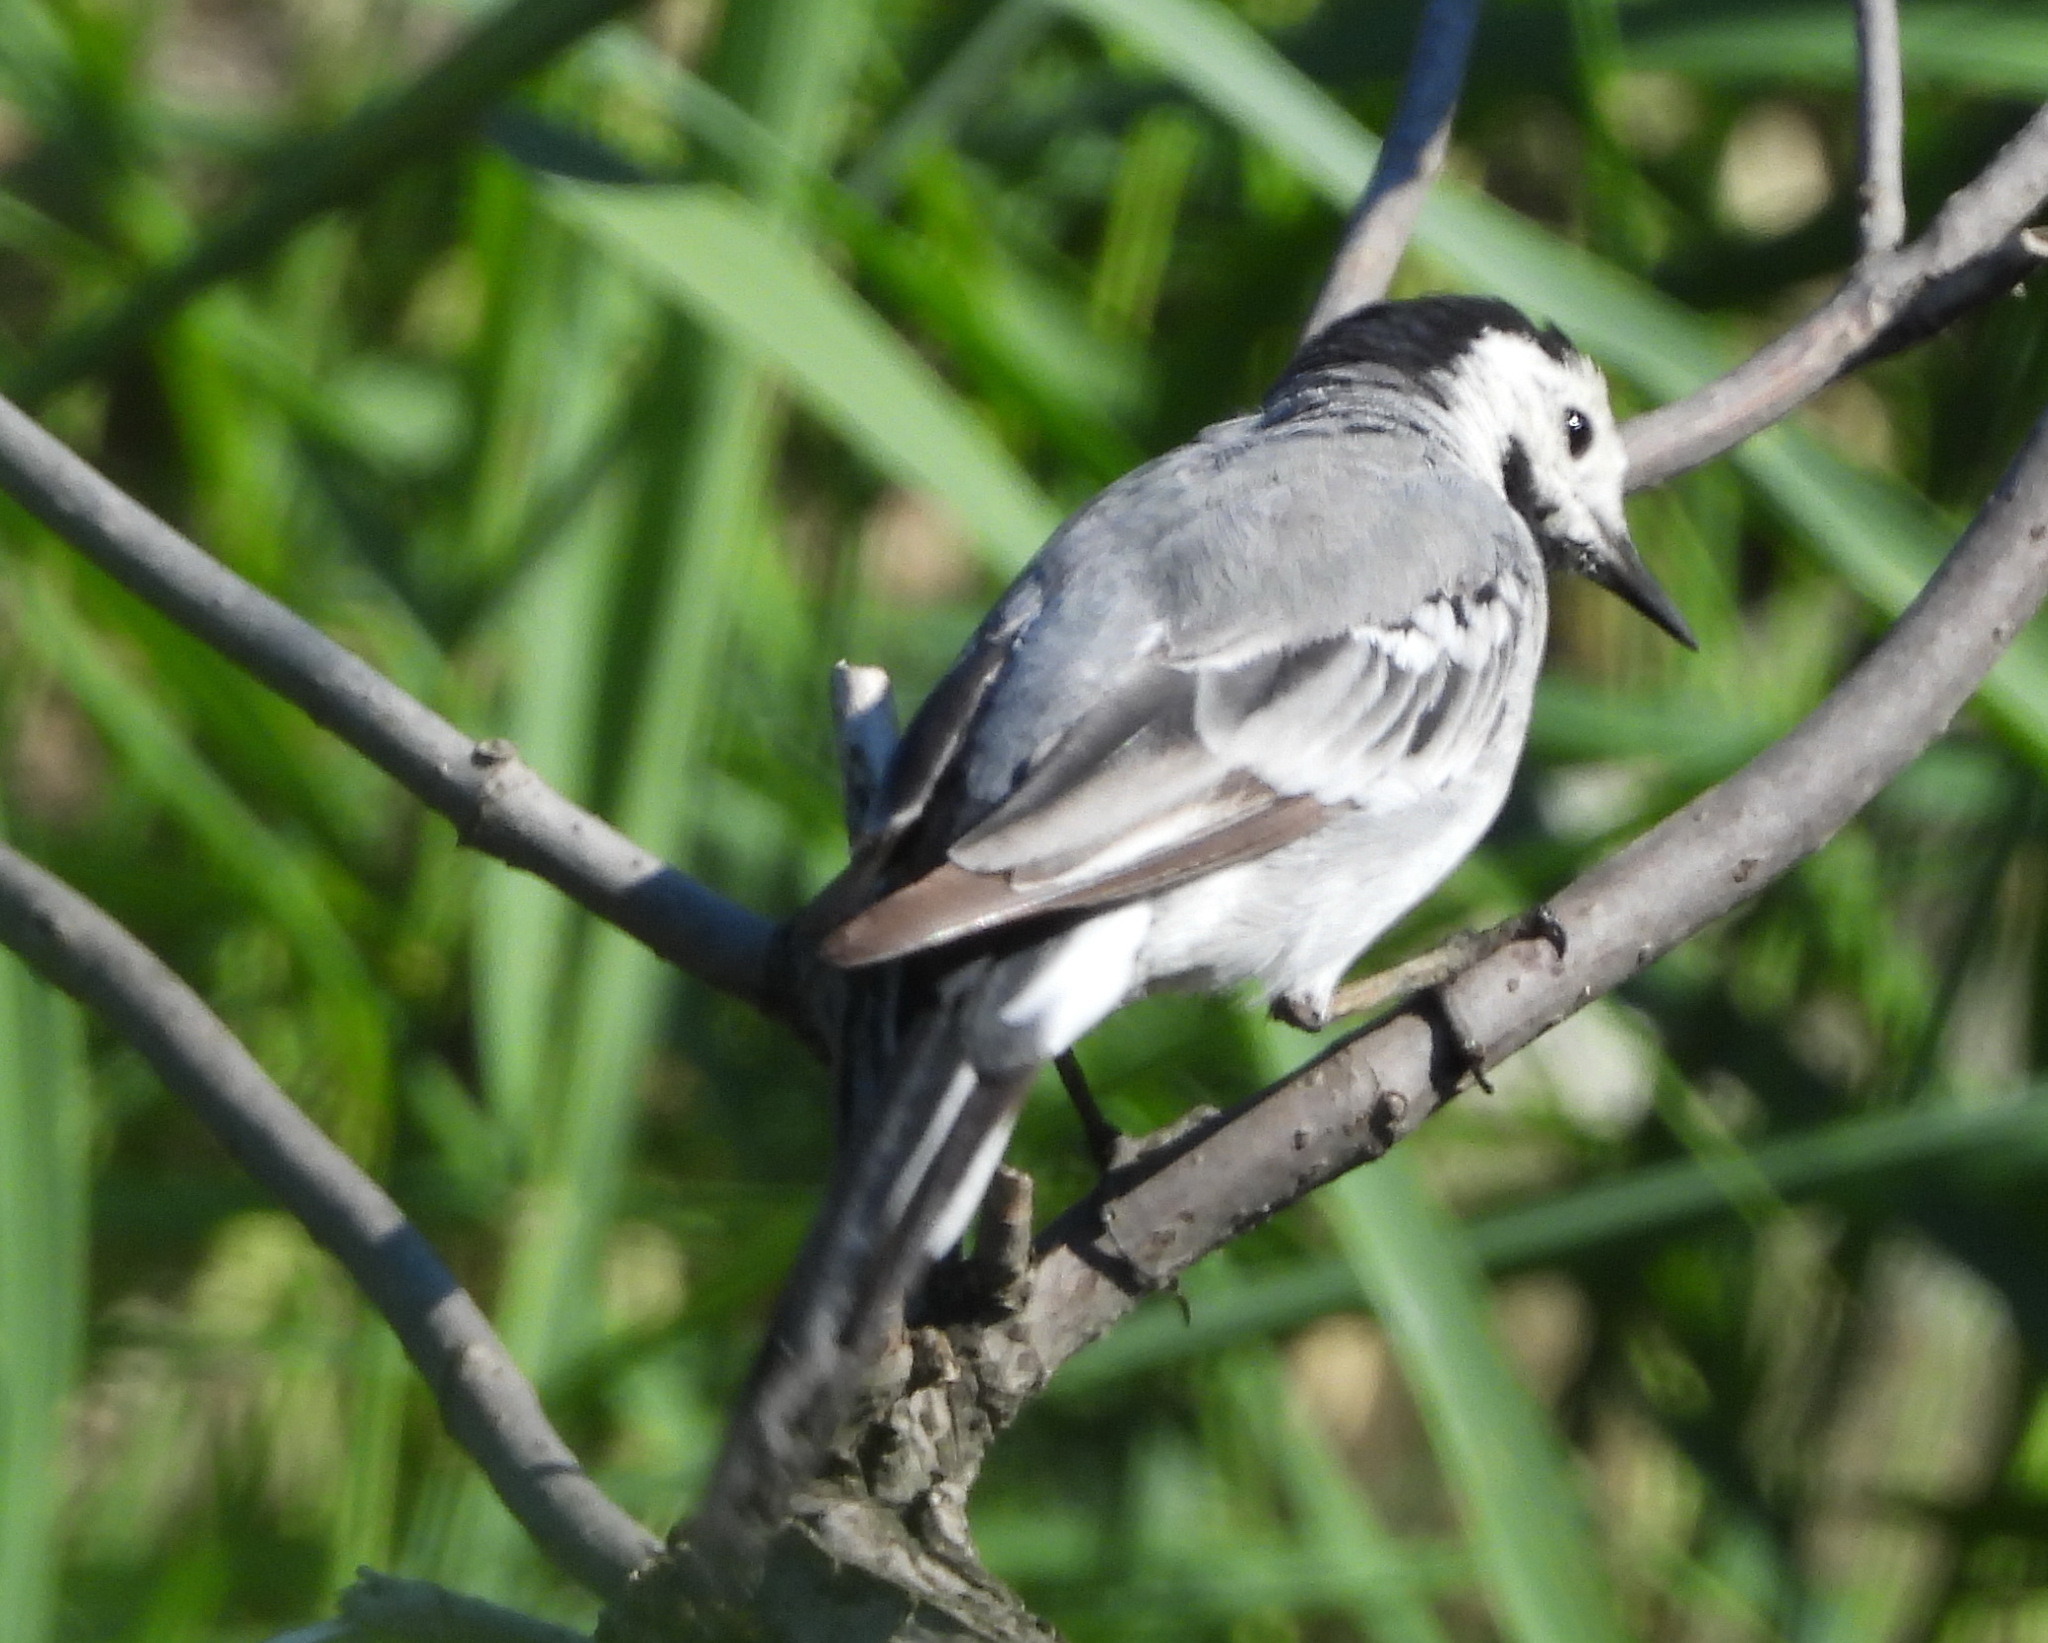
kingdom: Animalia
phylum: Chordata
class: Aves
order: Passeriformes
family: Motacillidae
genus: Motacilla
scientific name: Motacilla alba
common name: White wagtail
